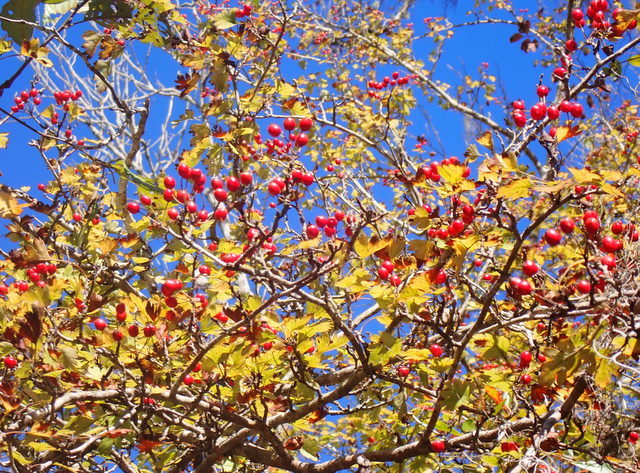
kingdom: Plantae
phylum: Tracheophyta
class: Magnoliopsida
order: Rosales
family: Rosaceae
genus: Crataegus
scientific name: Crataegus marshallii
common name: Parsley-hawthorn
